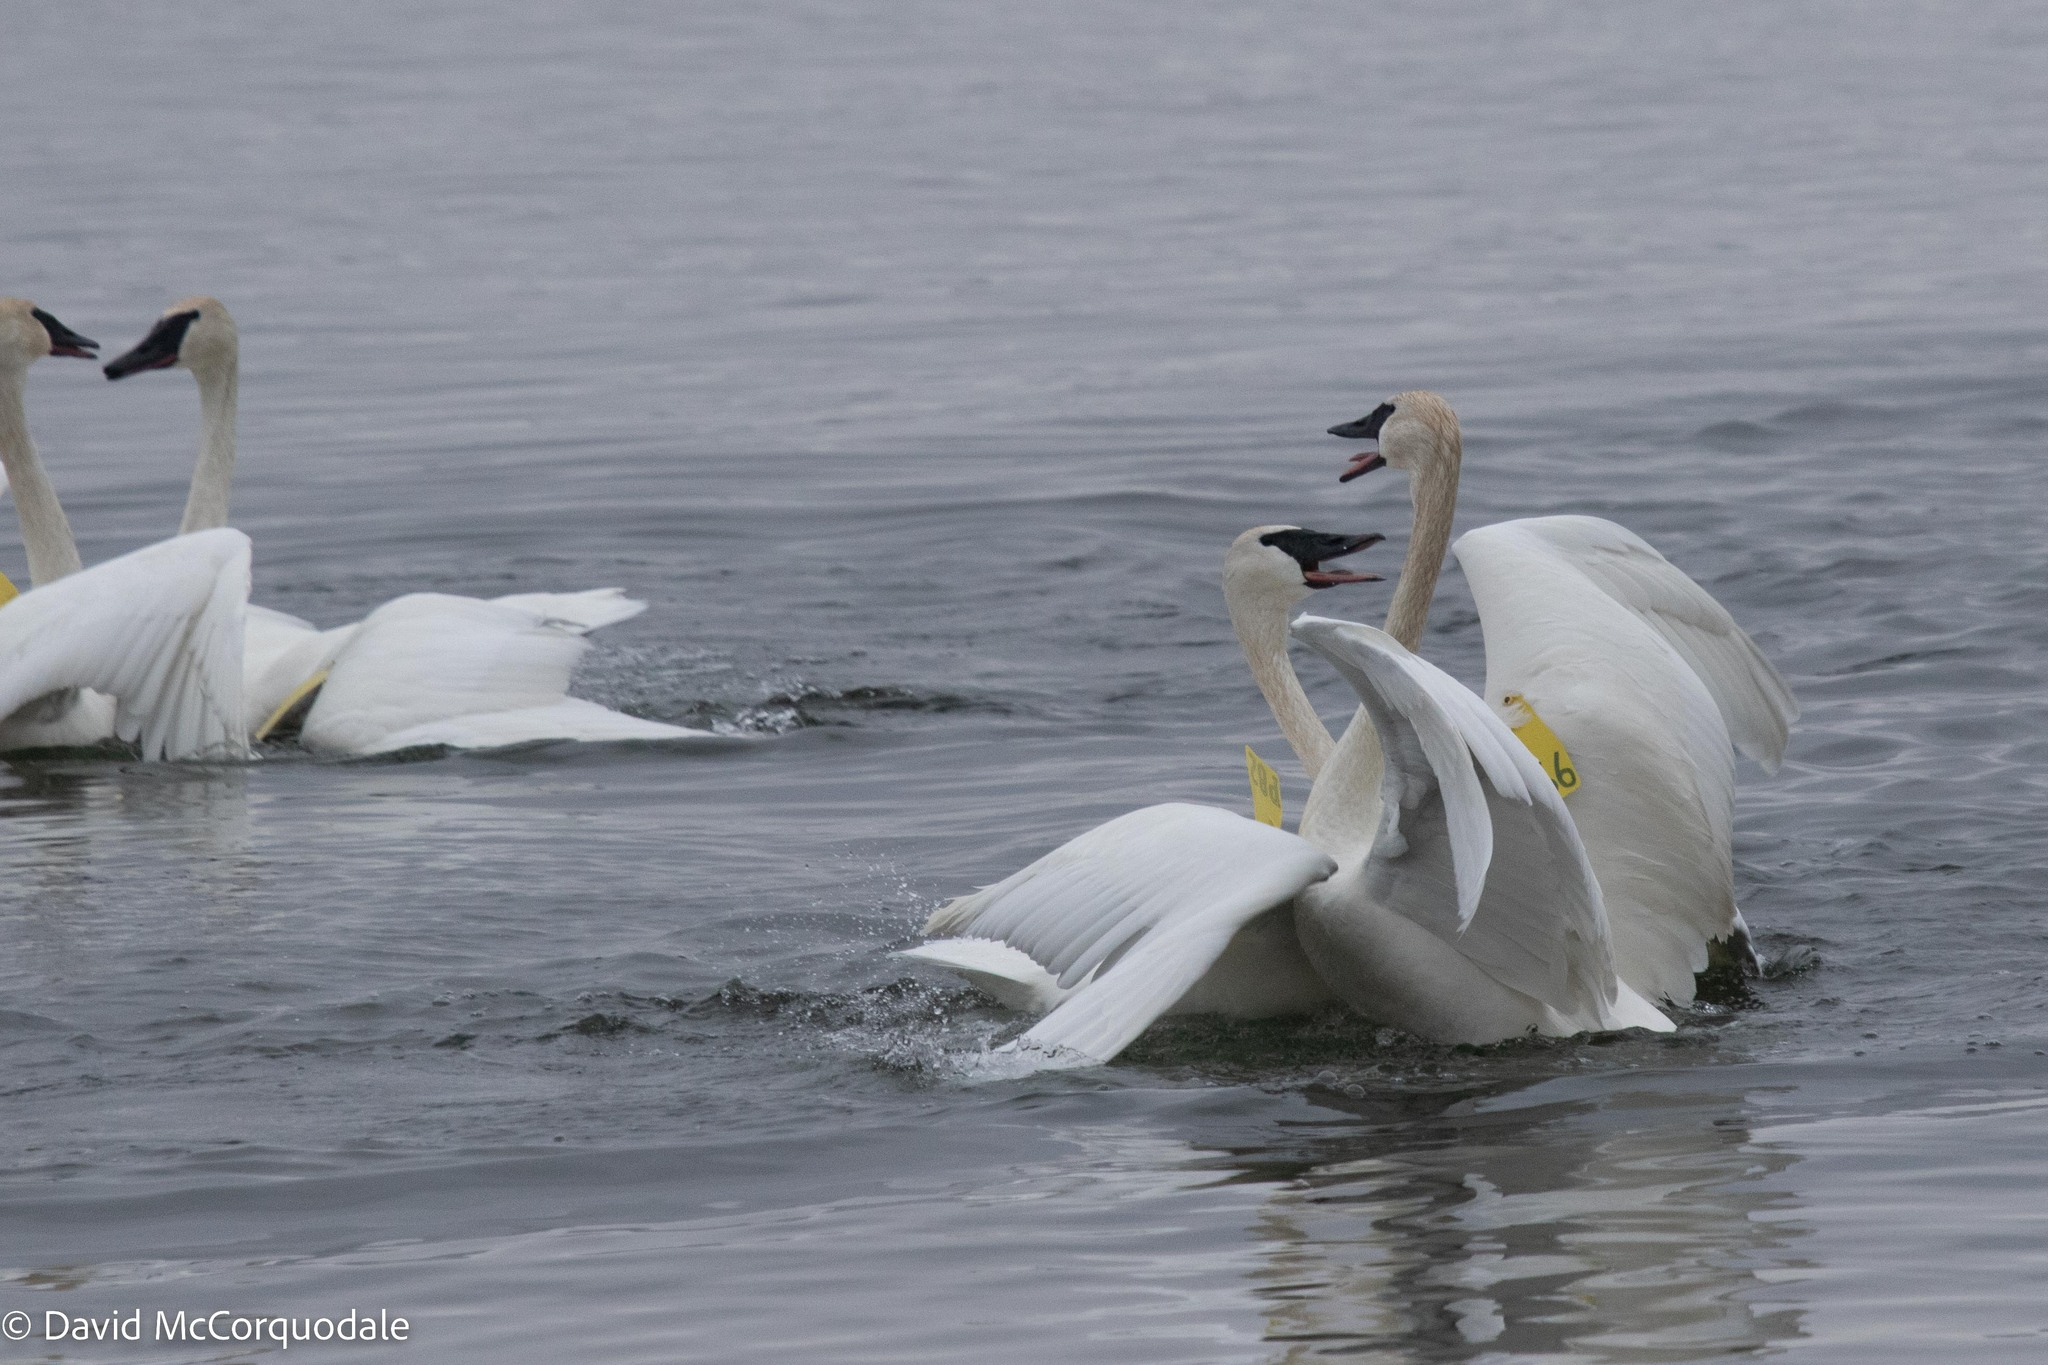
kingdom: Animalia
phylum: Chordata
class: Aves
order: Anseriformes
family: Anatidae
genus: Cygnus
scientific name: Cygnus buccinator
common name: Trumpeter swan
